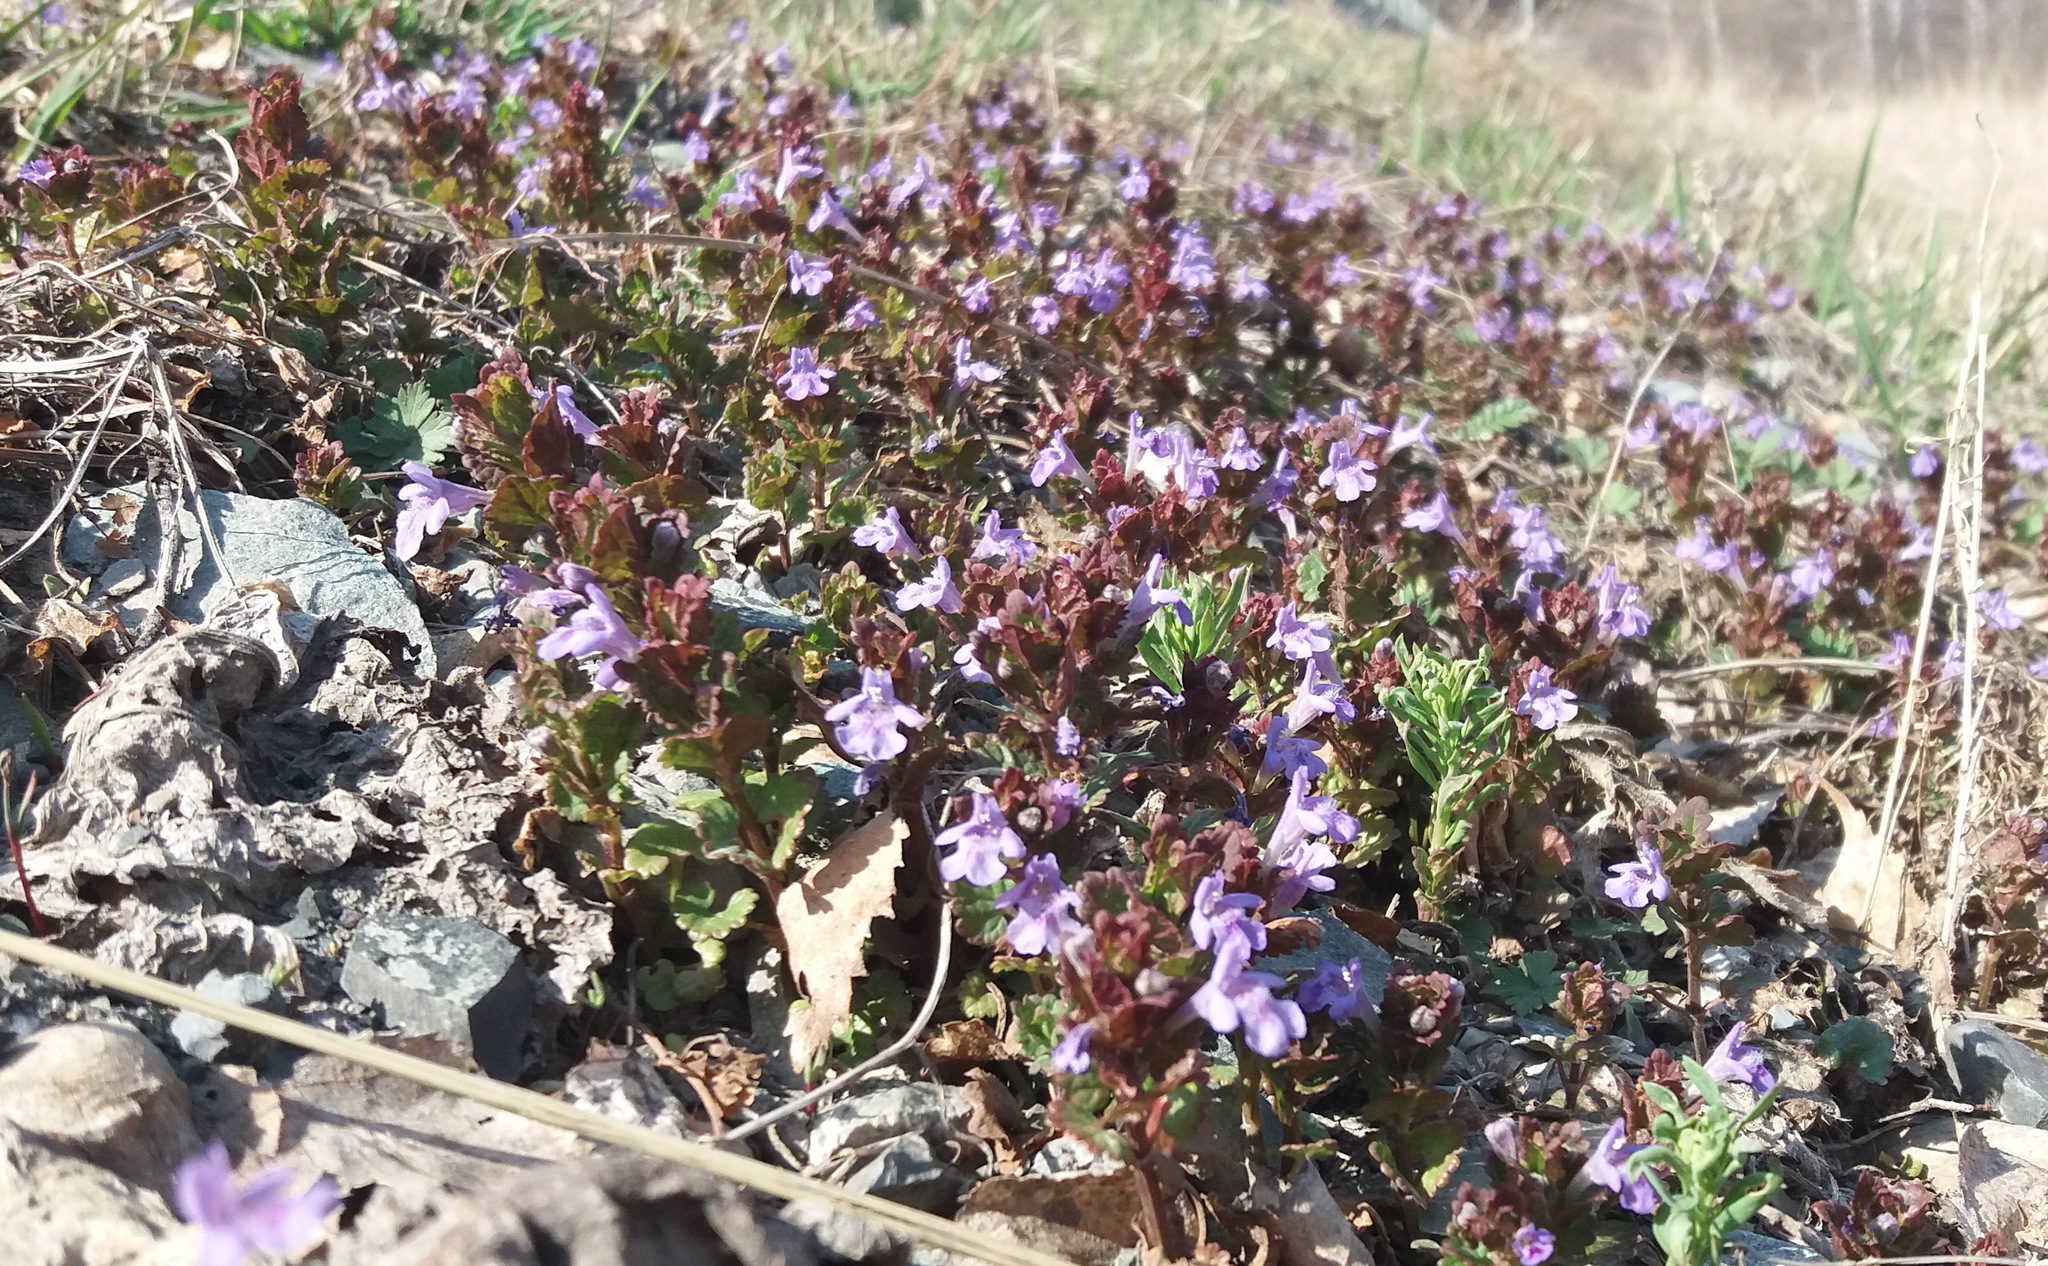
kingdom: Plantae
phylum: Tracheophyta
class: Magnoliopsida
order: Lamiales
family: Lamiaceae
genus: Glechoma
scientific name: Glechoma hederacea
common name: Ground ivy
